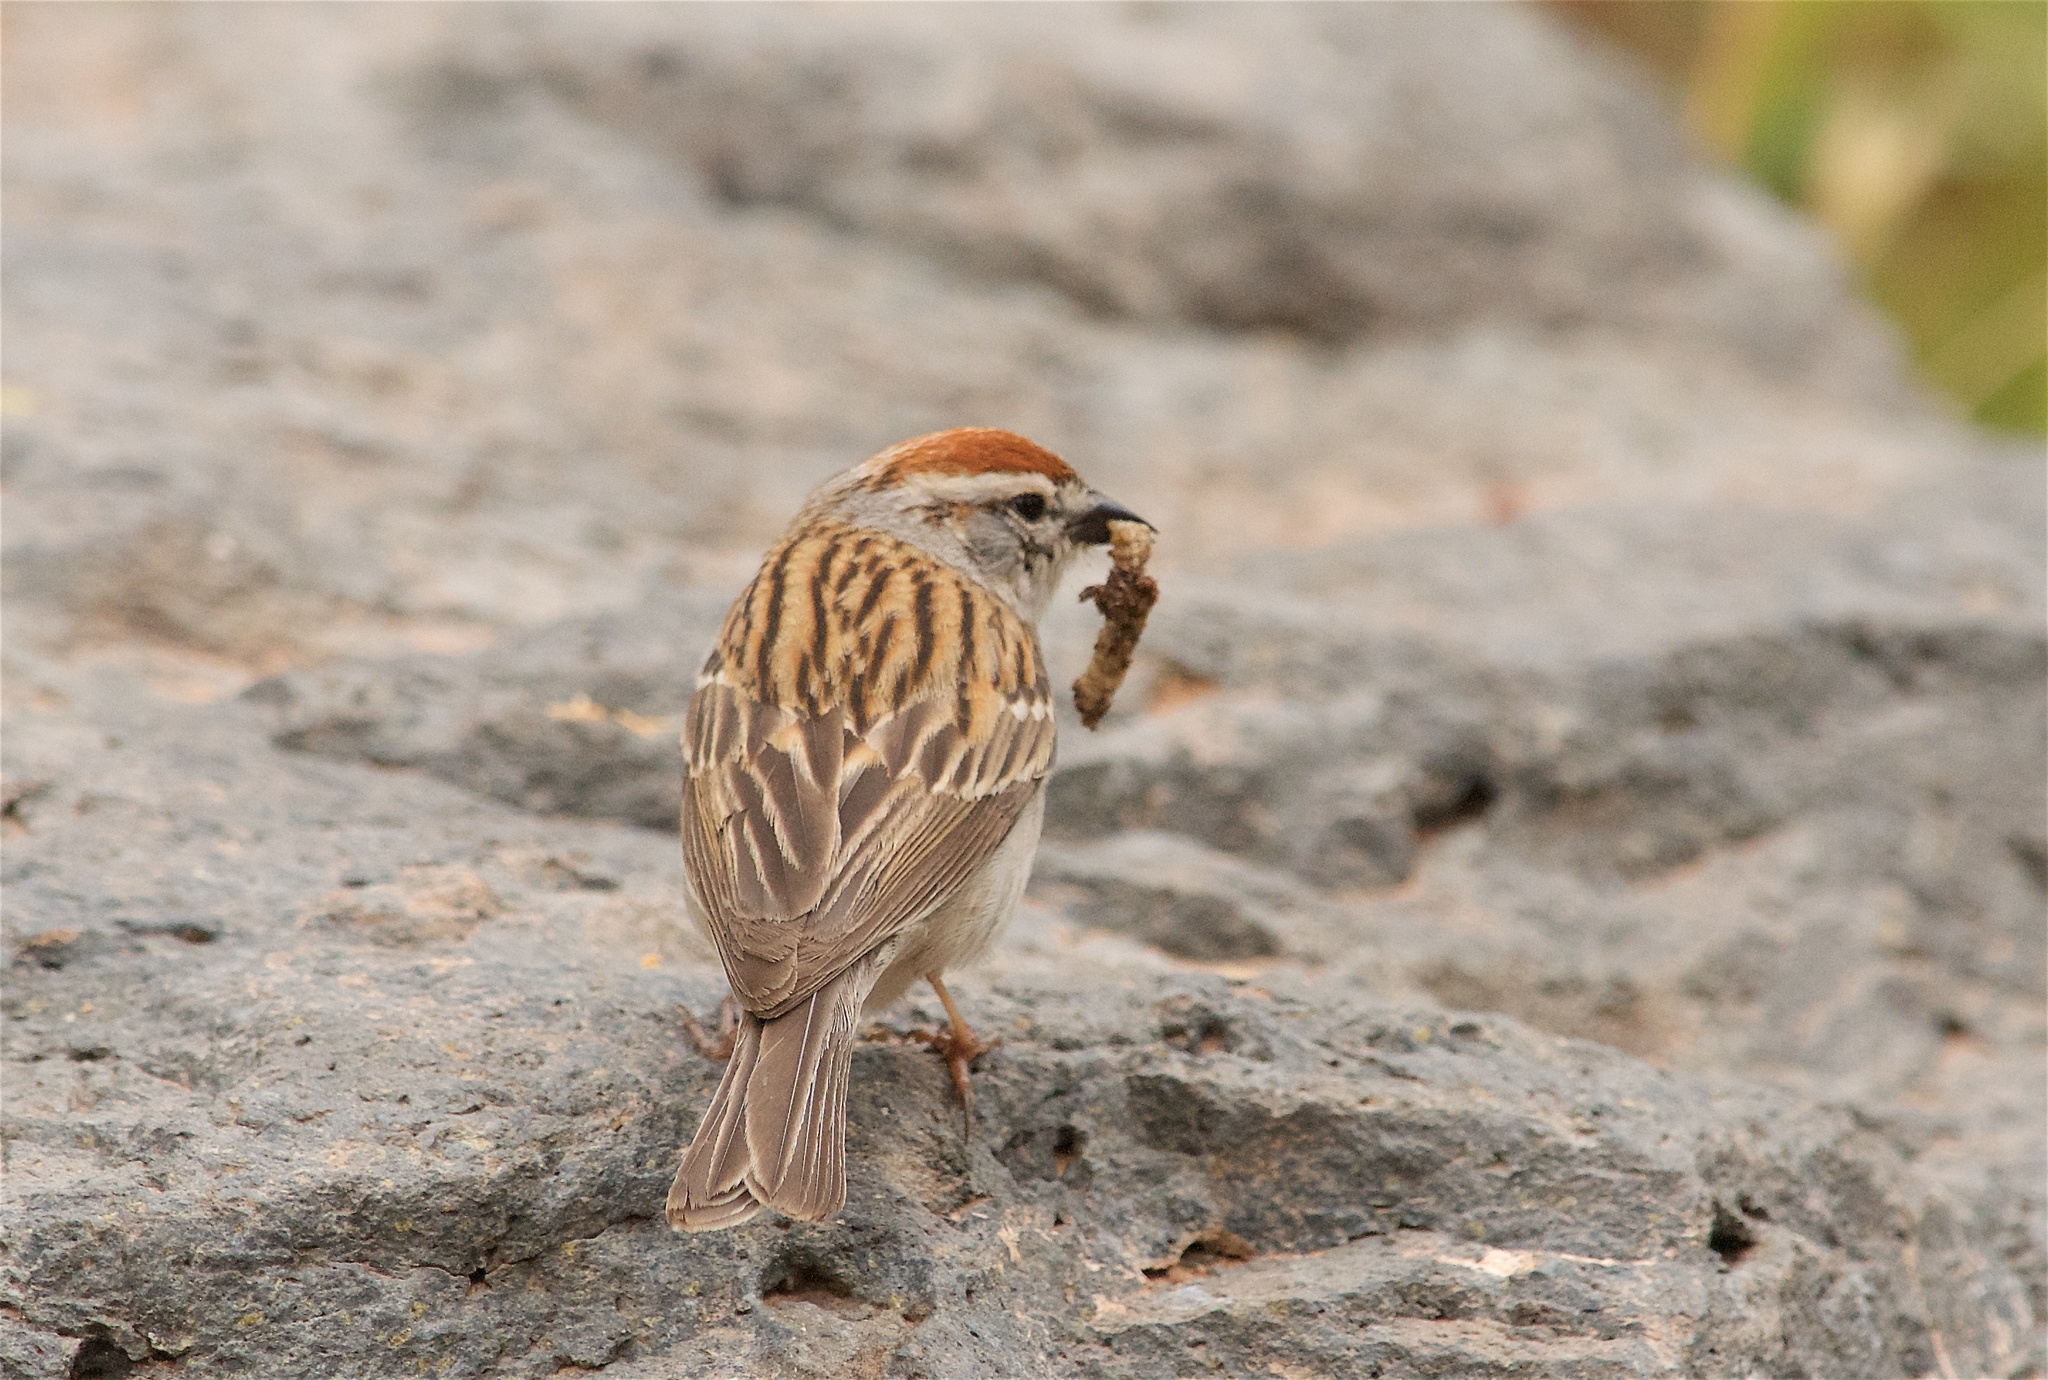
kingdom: Animalia
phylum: Chordata
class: Aves
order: Passeriformes
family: Passerellidae
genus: Spizella
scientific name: Spizella passerina
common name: Chipping sparrow
